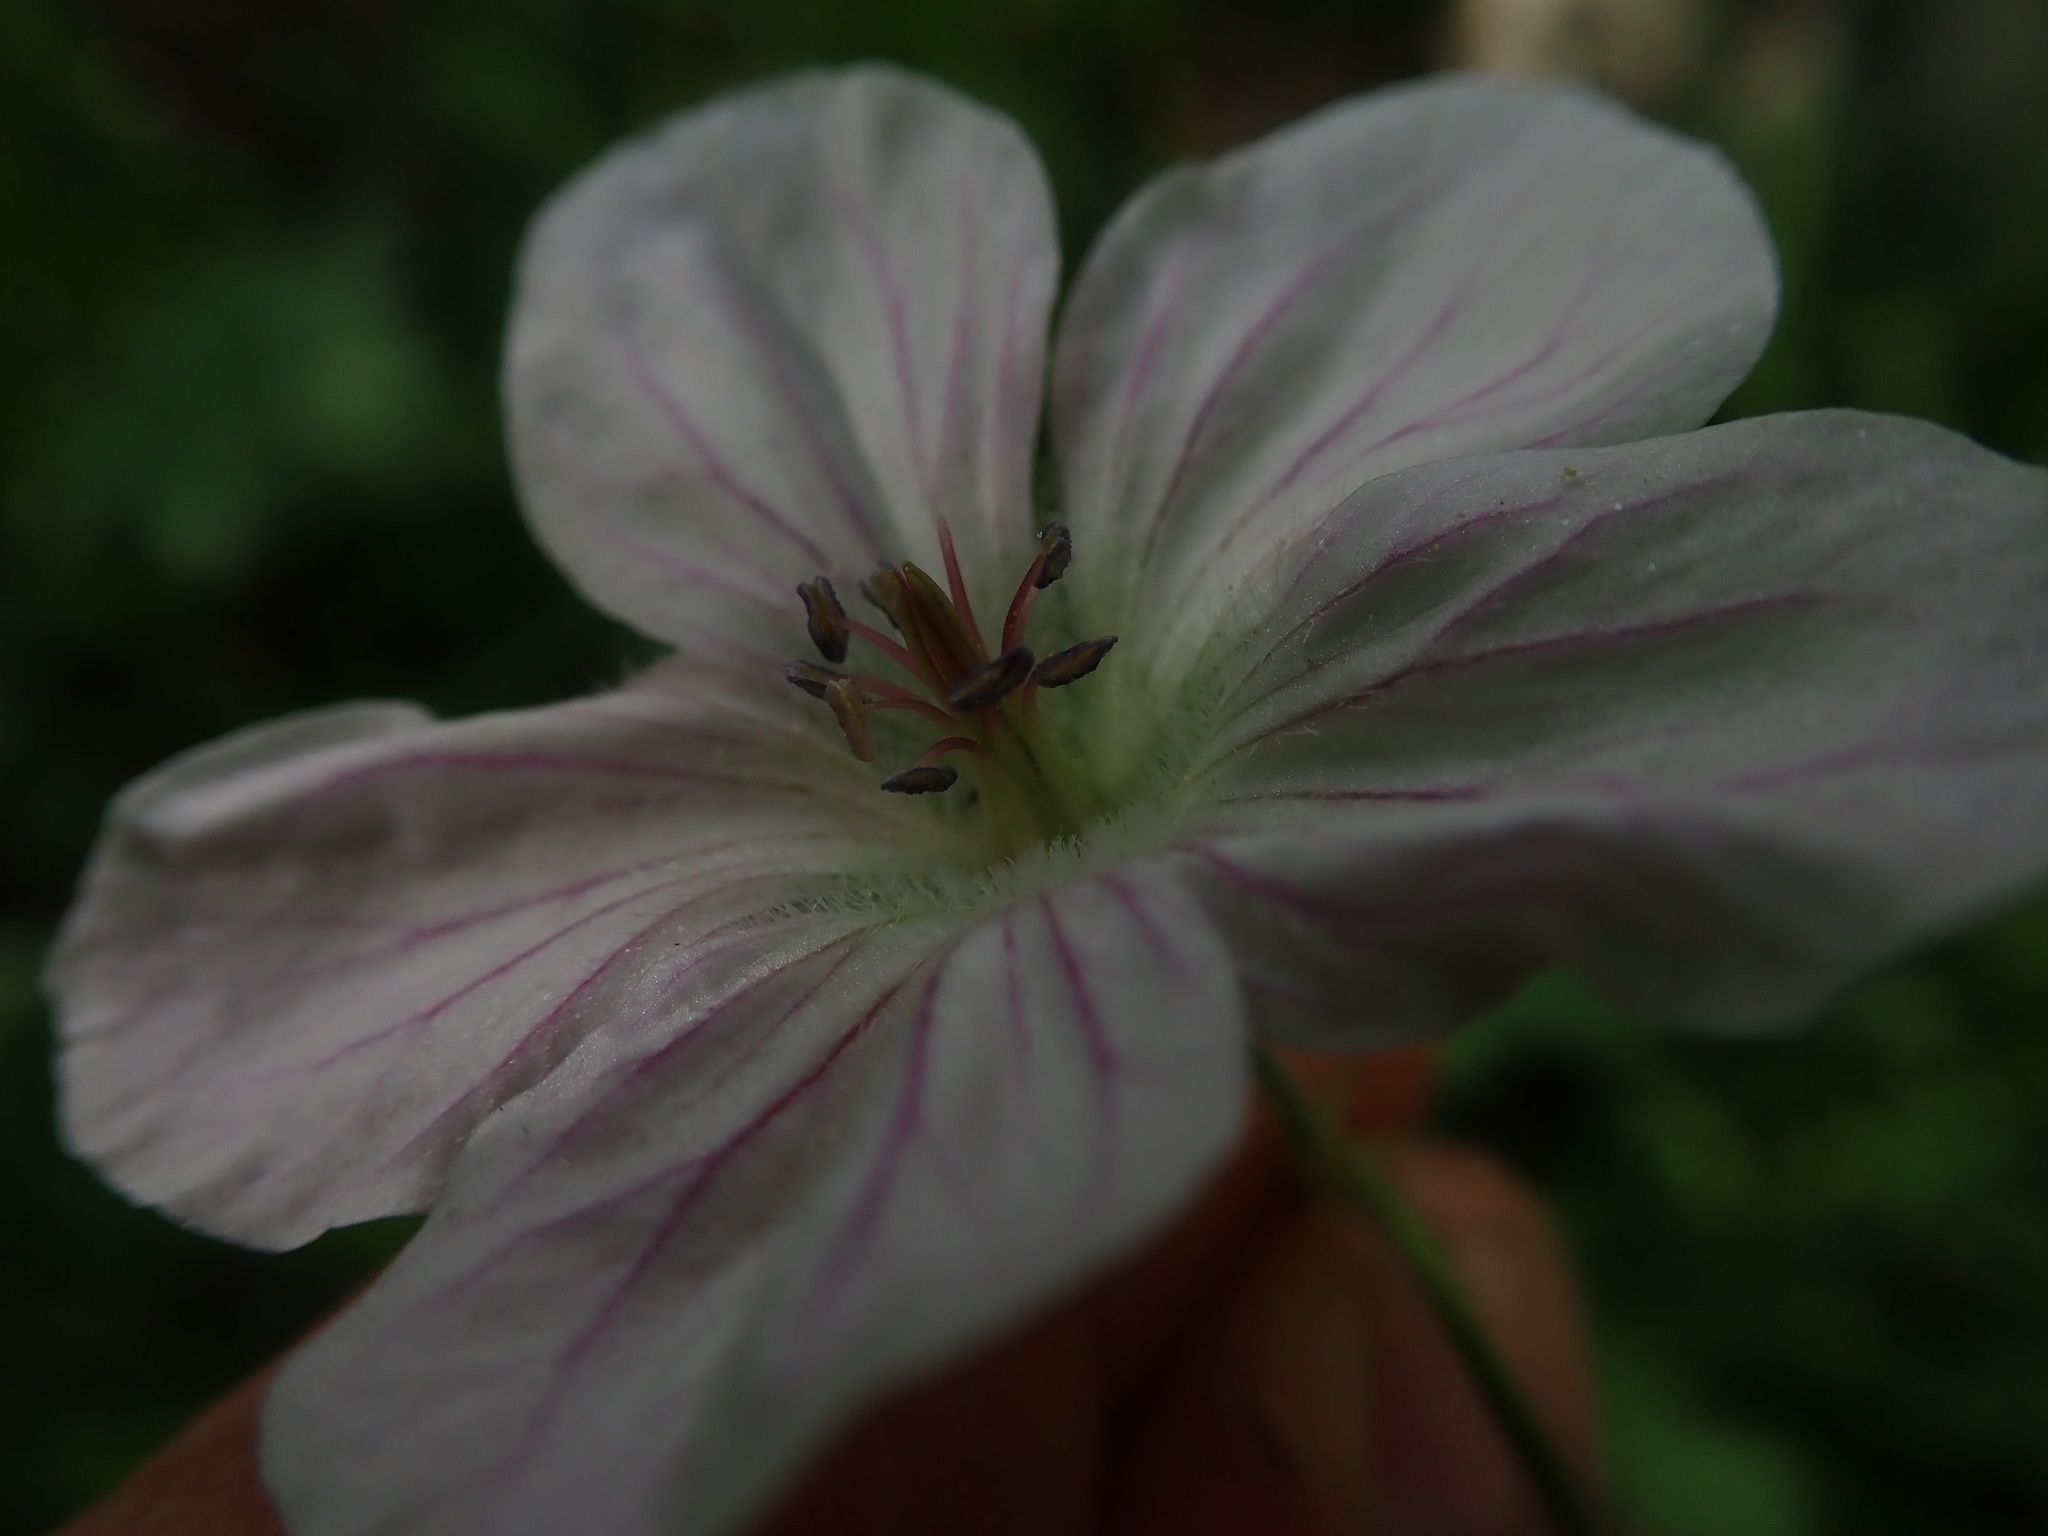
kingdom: Plantae
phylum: Tracheophyta
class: Magnoliopsida
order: Geraniales
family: Geraniaceae
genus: Geranium
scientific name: Geranium richardsonii
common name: Richardson's crane's-bill
